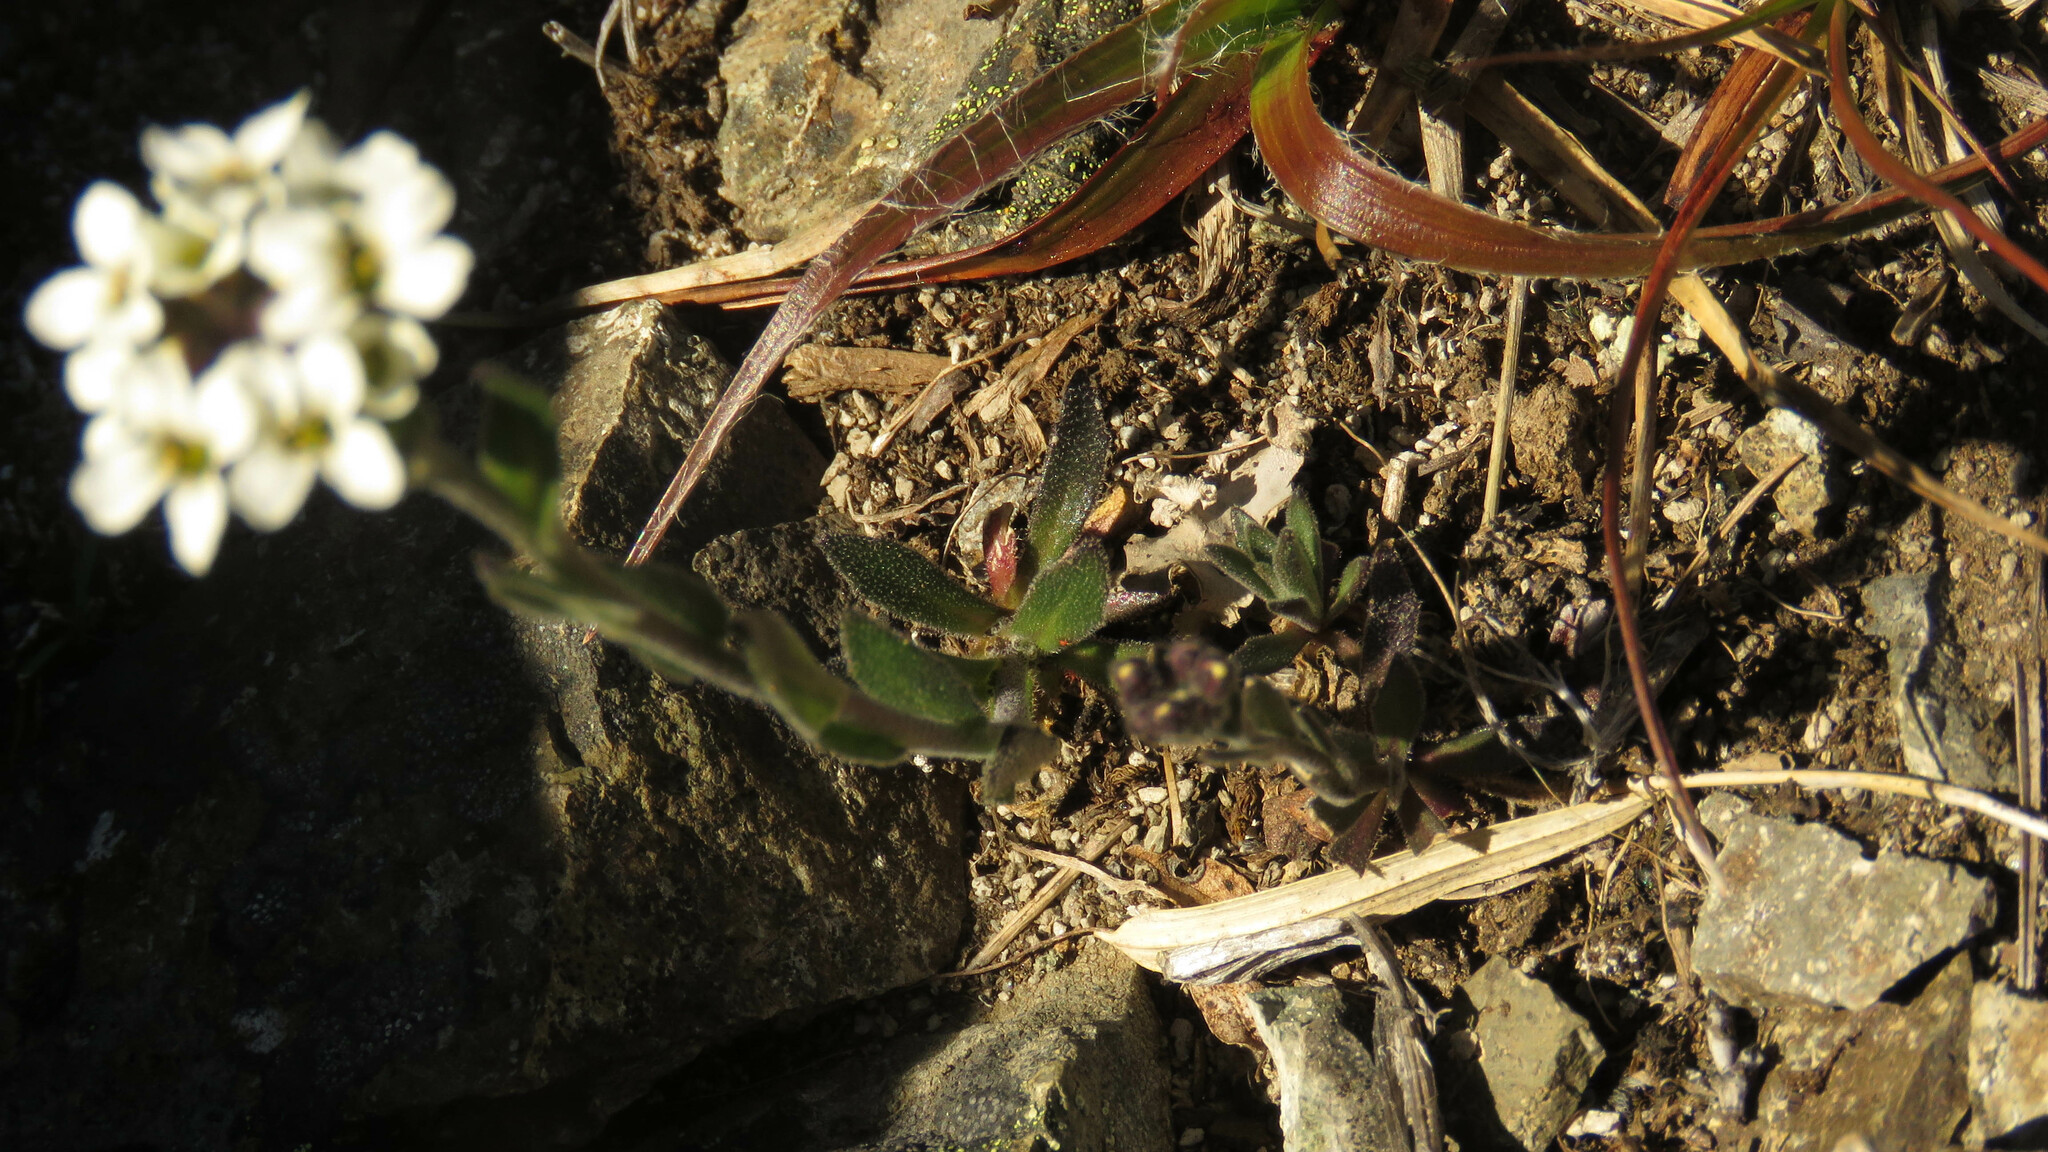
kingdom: Plantae
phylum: Tracheophyta
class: Magnoliopsida
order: Brassicales
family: Brassicaceae
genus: Draba
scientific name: Draba gilliesii
